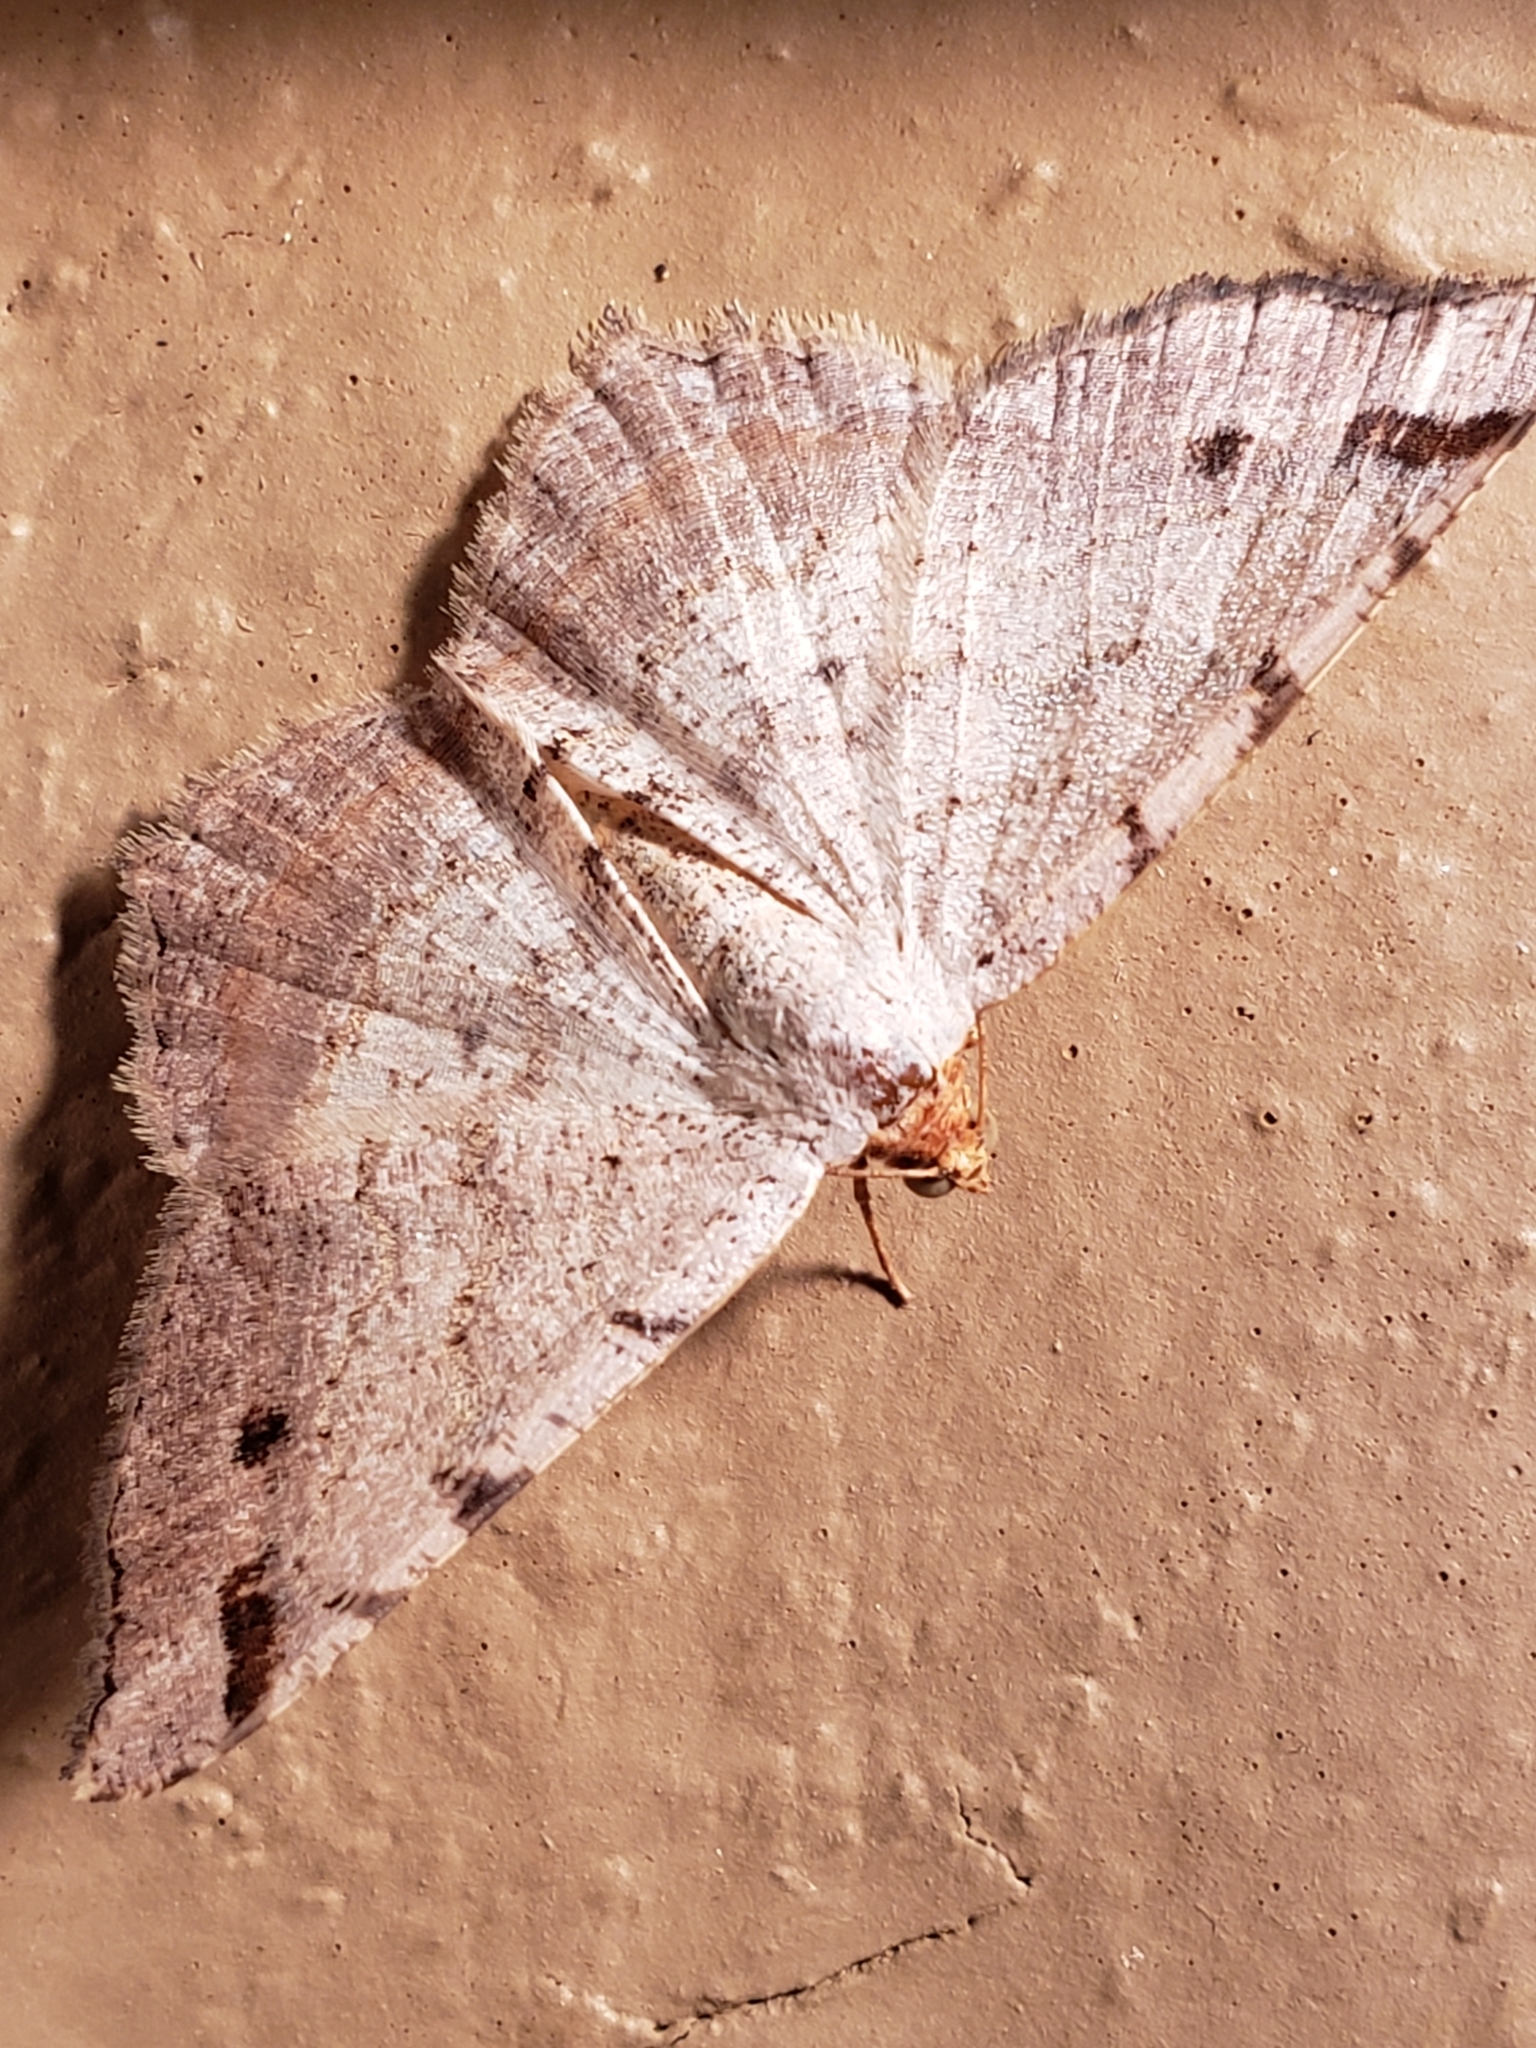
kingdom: Animalia
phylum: Arthropoda
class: Insecta
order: Lepidoptera
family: Geometridae
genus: Macaria
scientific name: Macaria bicolorata
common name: Dingy angle
